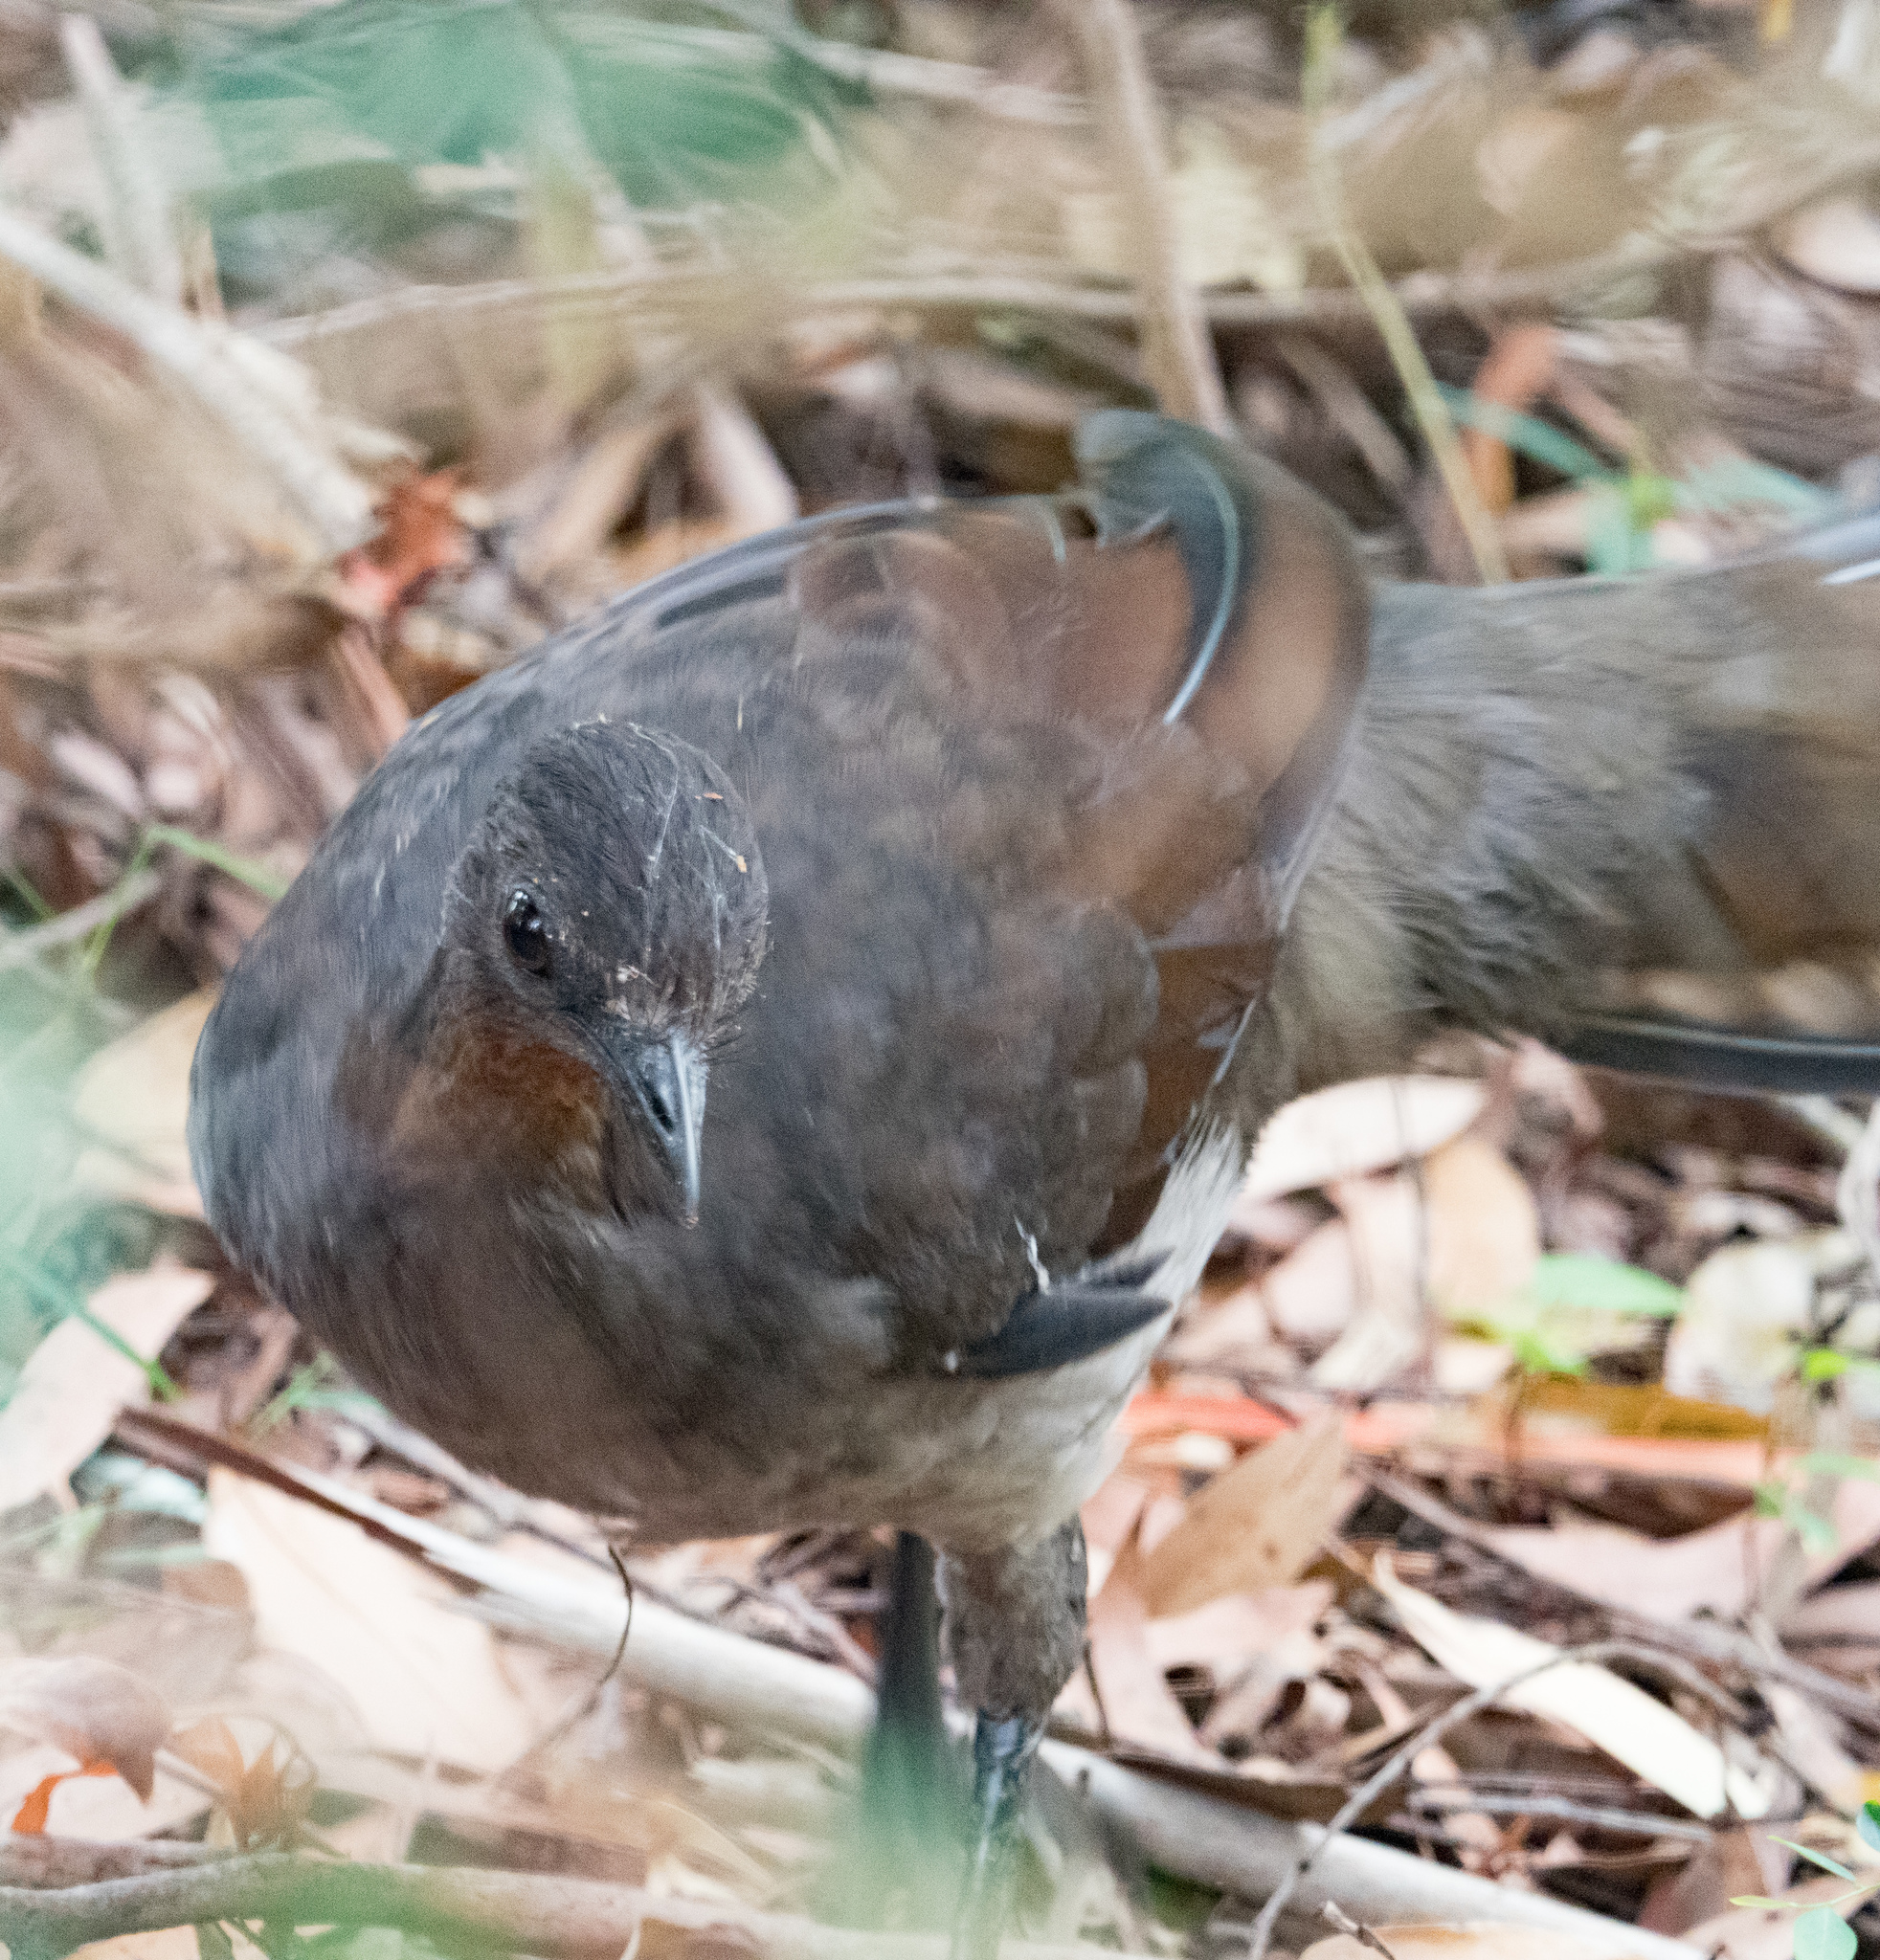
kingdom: Animalia
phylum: Chordata
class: Aves
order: Passeriformes
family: Menuridae
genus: Menura
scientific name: Menura novaehollandiae
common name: Superb lyrebird
